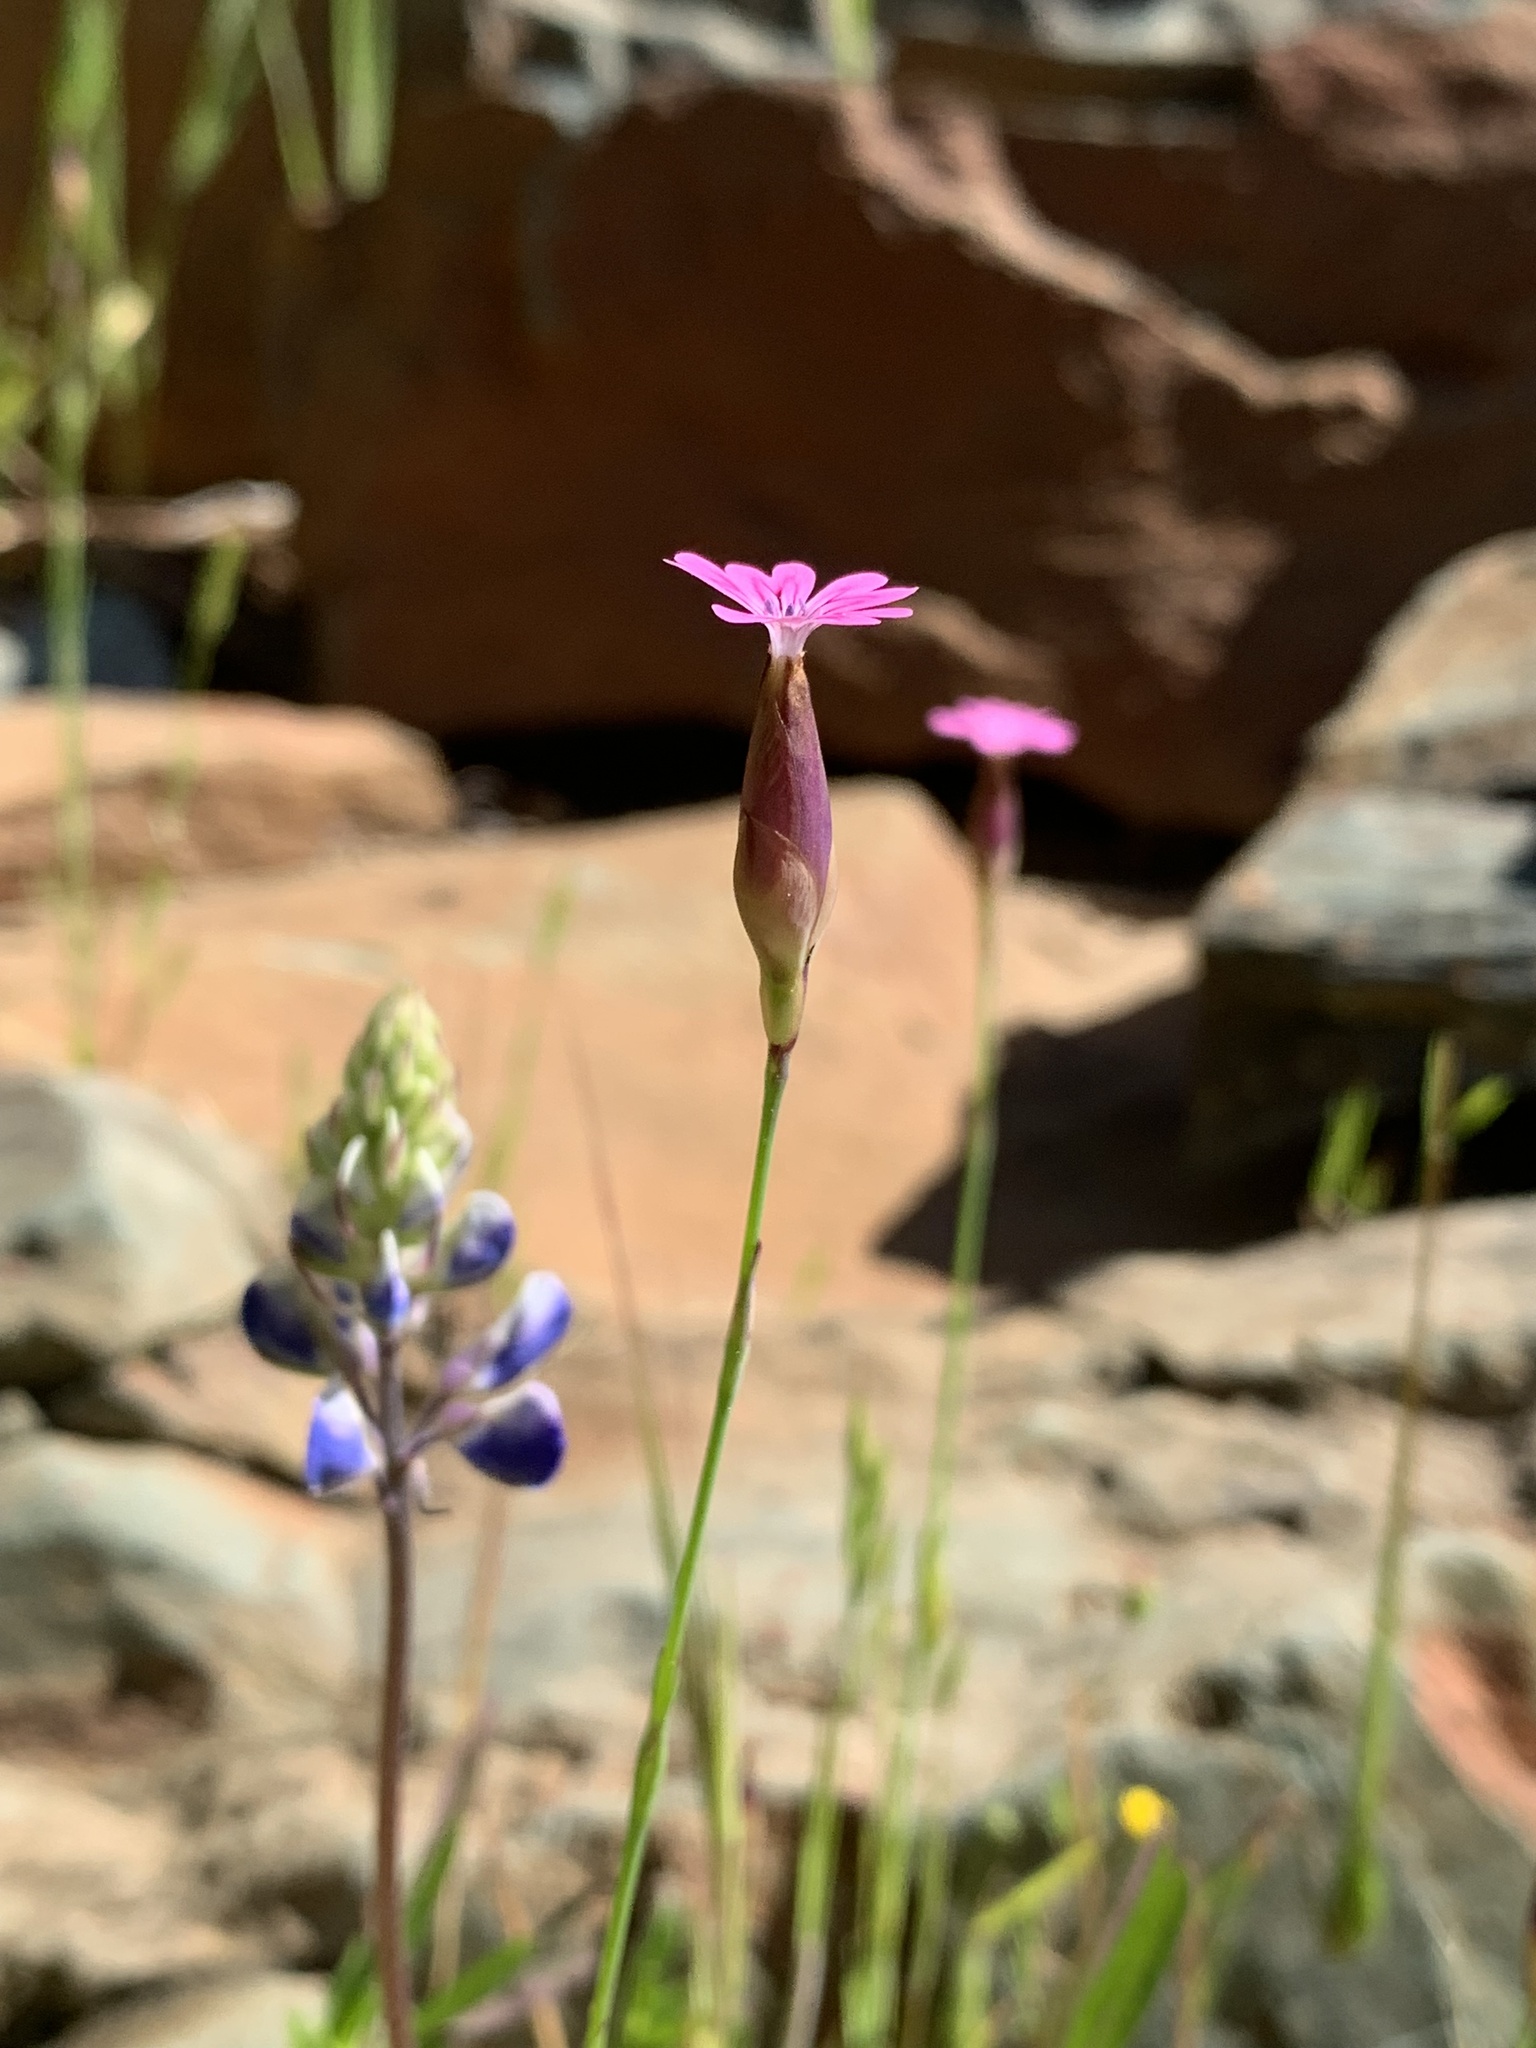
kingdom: Plantae
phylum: Tracheophyta
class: Magnoliopsida
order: Caryophyllales
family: Caryophyllaceae
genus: Petrorhagia
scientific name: Petrorhagia dubia
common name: Hairypink
